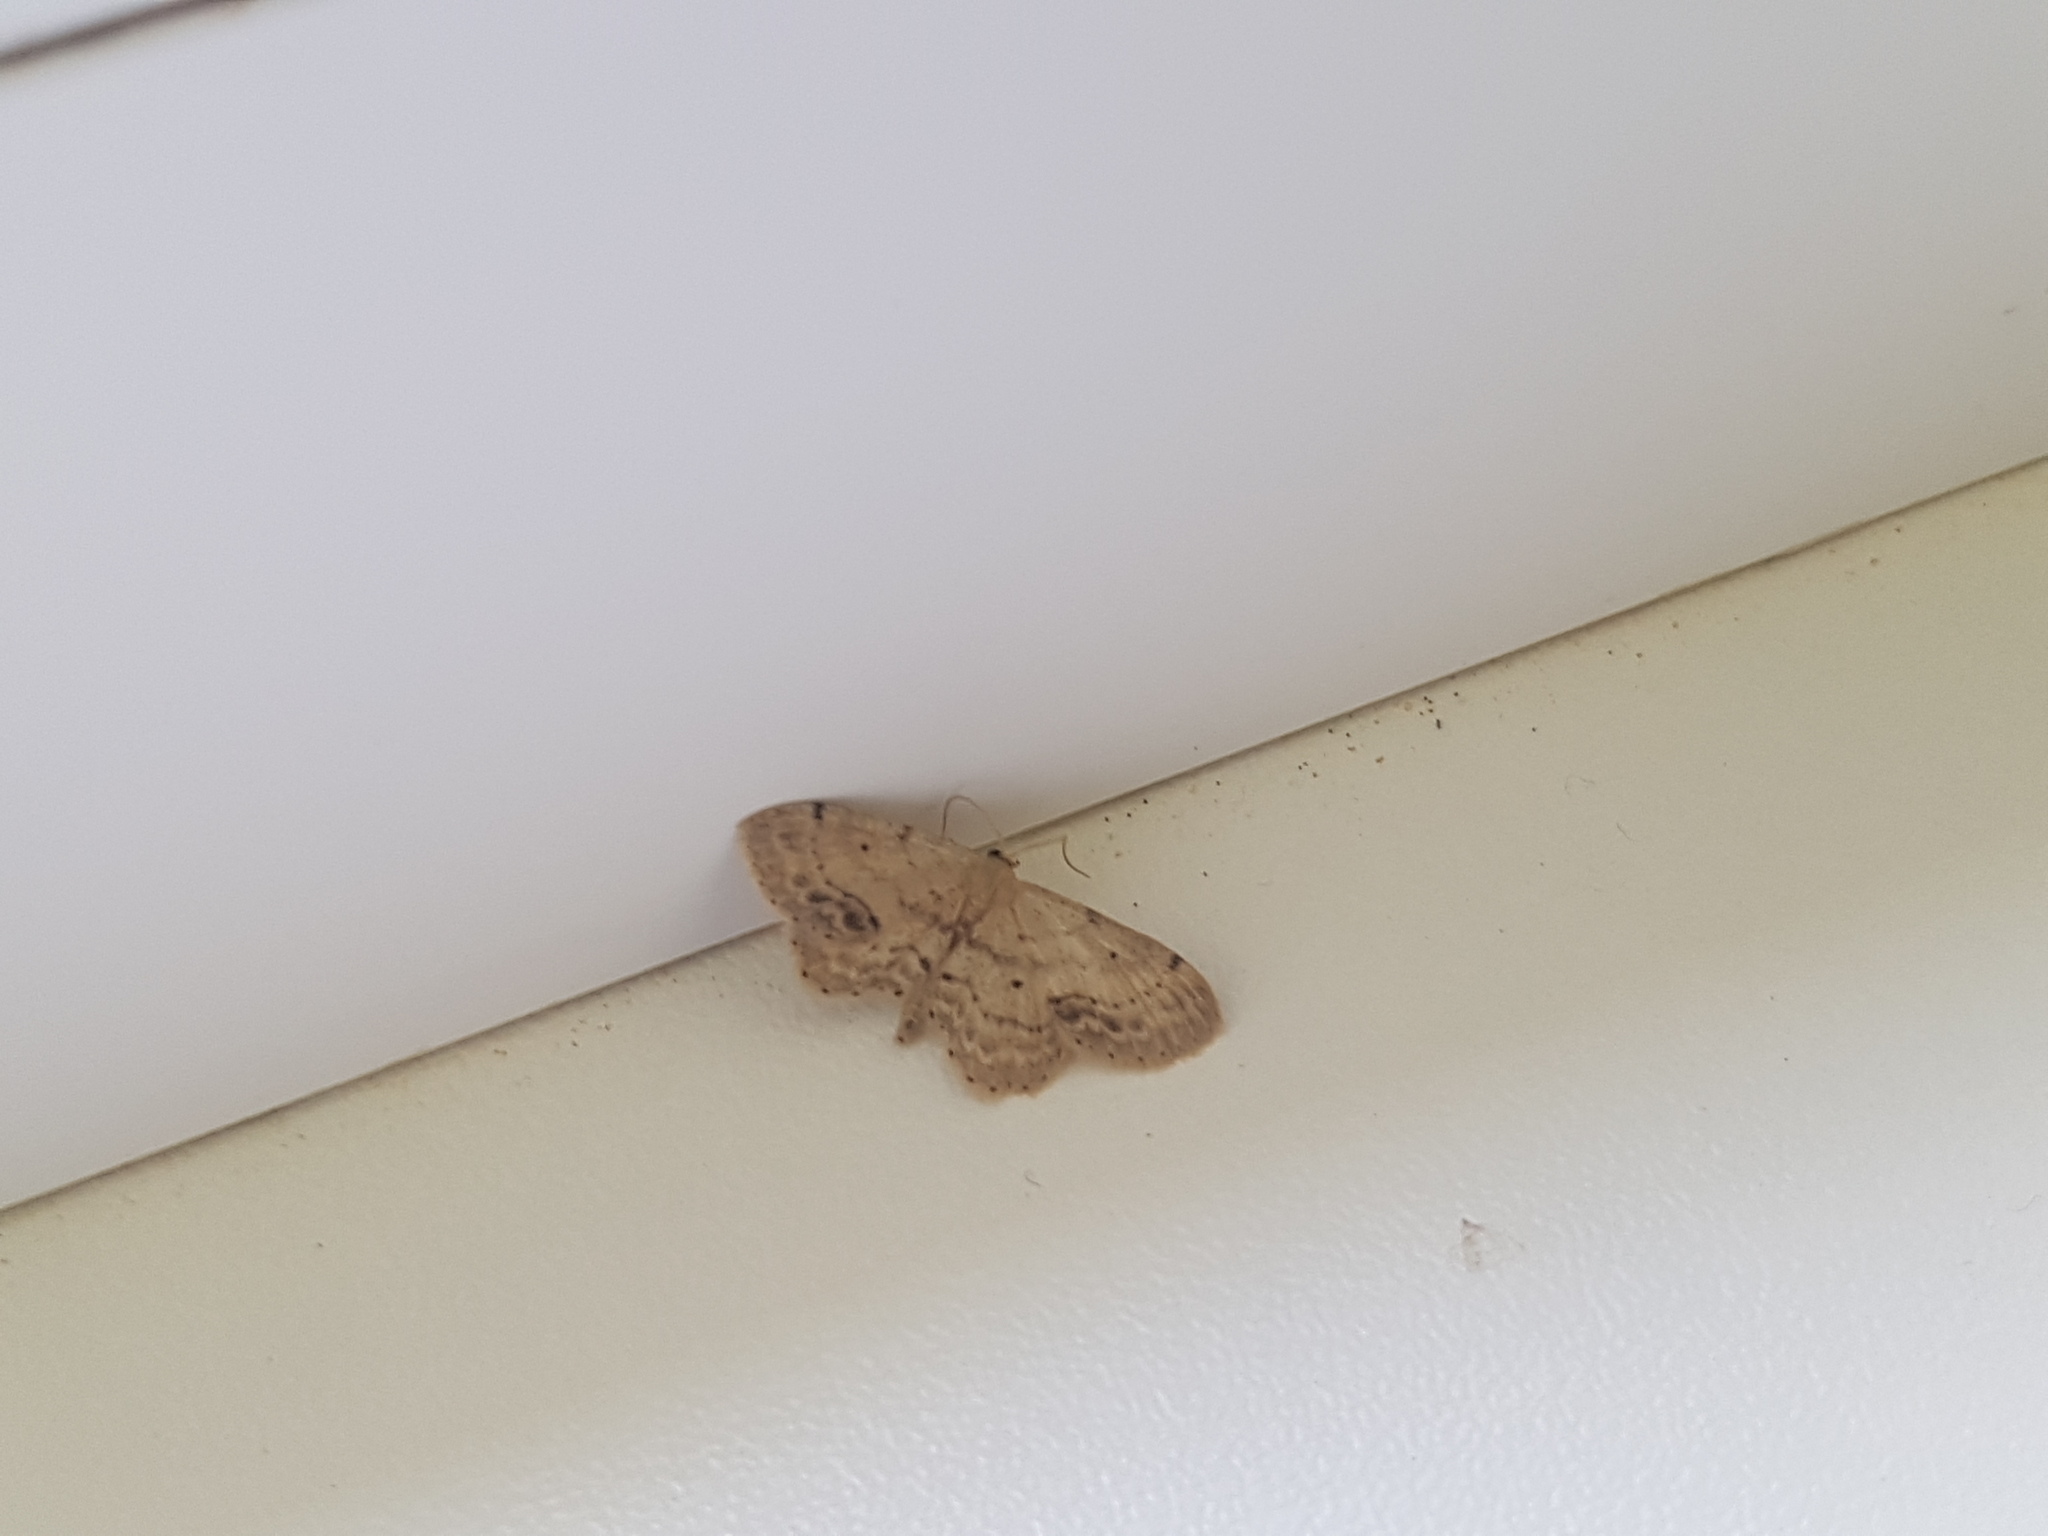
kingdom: Animalia
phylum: Arthropoda
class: Insecta
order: Lepidoptera
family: Geometridae
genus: Idaea
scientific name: Idaea dimidiata
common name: Single-dotted wave
